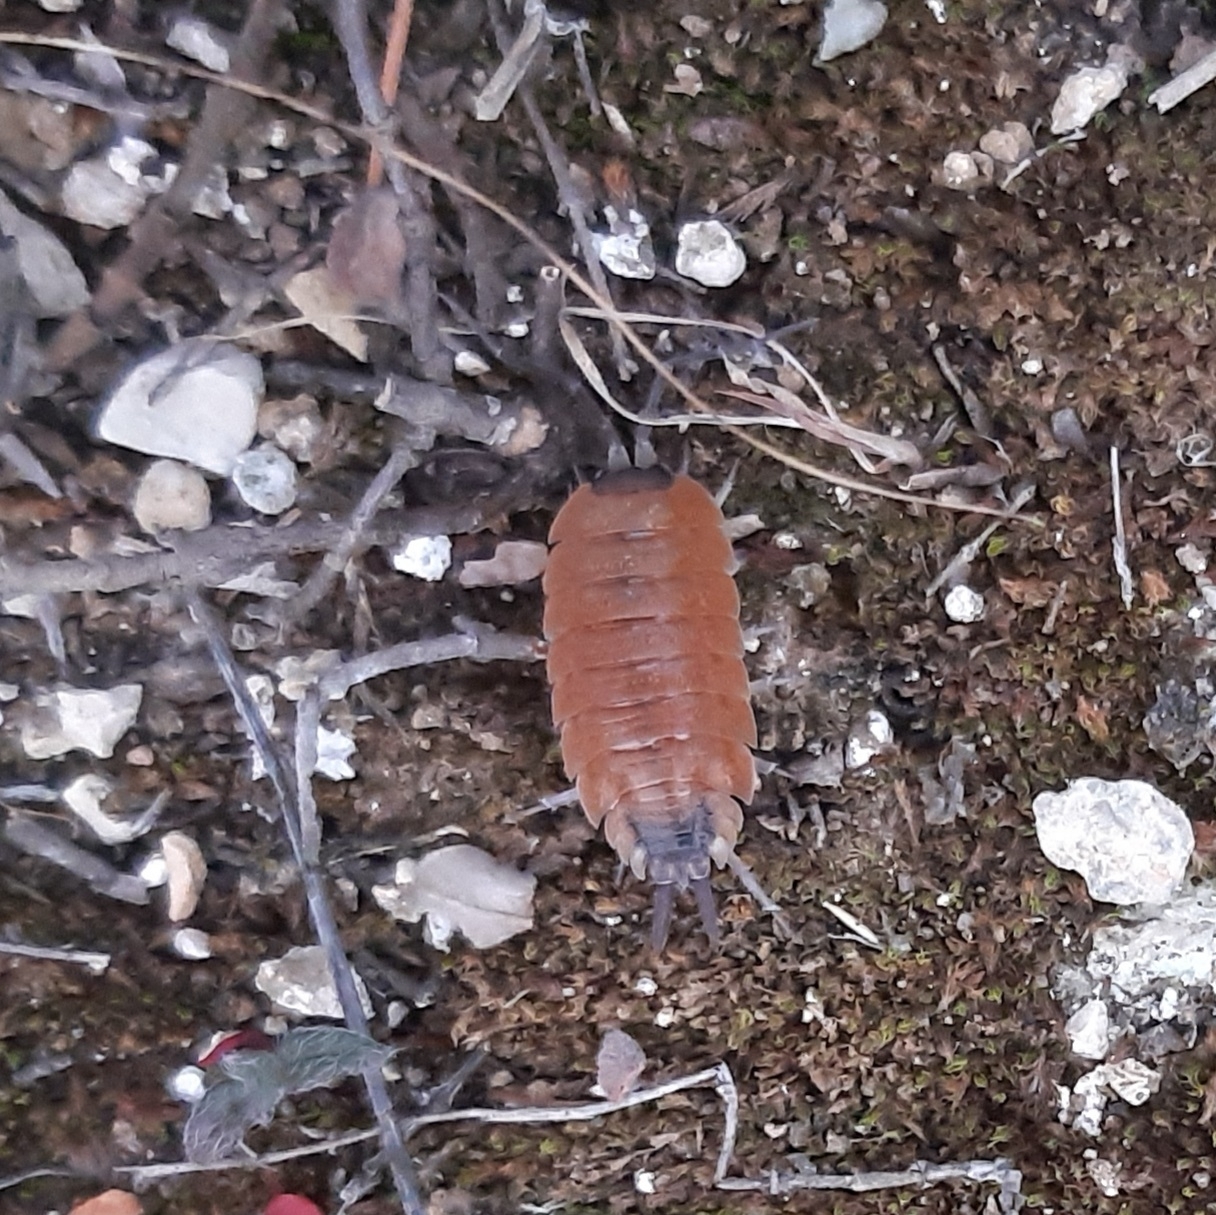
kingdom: Animalia
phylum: Arthropoda
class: Malacostraca
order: Isopoda
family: Porcellionidae
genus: Porcellio
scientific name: Porcellio silvestrii
